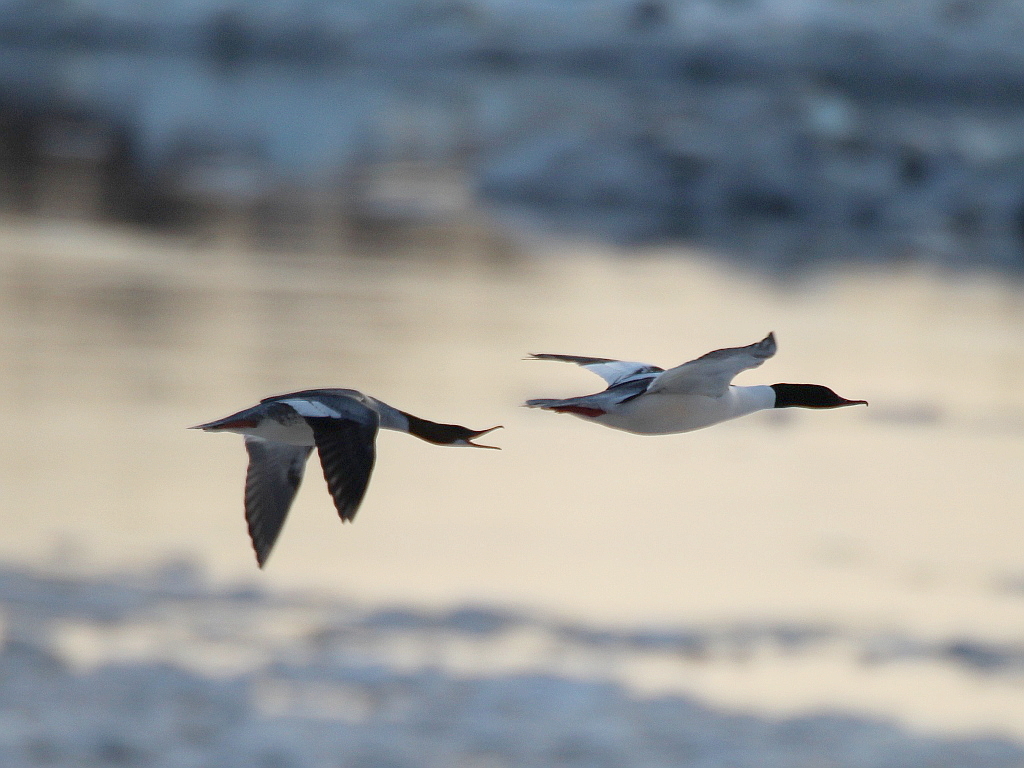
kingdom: Animalia
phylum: Chordata
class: Aves
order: Anseriformes
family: Anatidae
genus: Mergus
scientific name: Mergus merganser
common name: Common merganser
